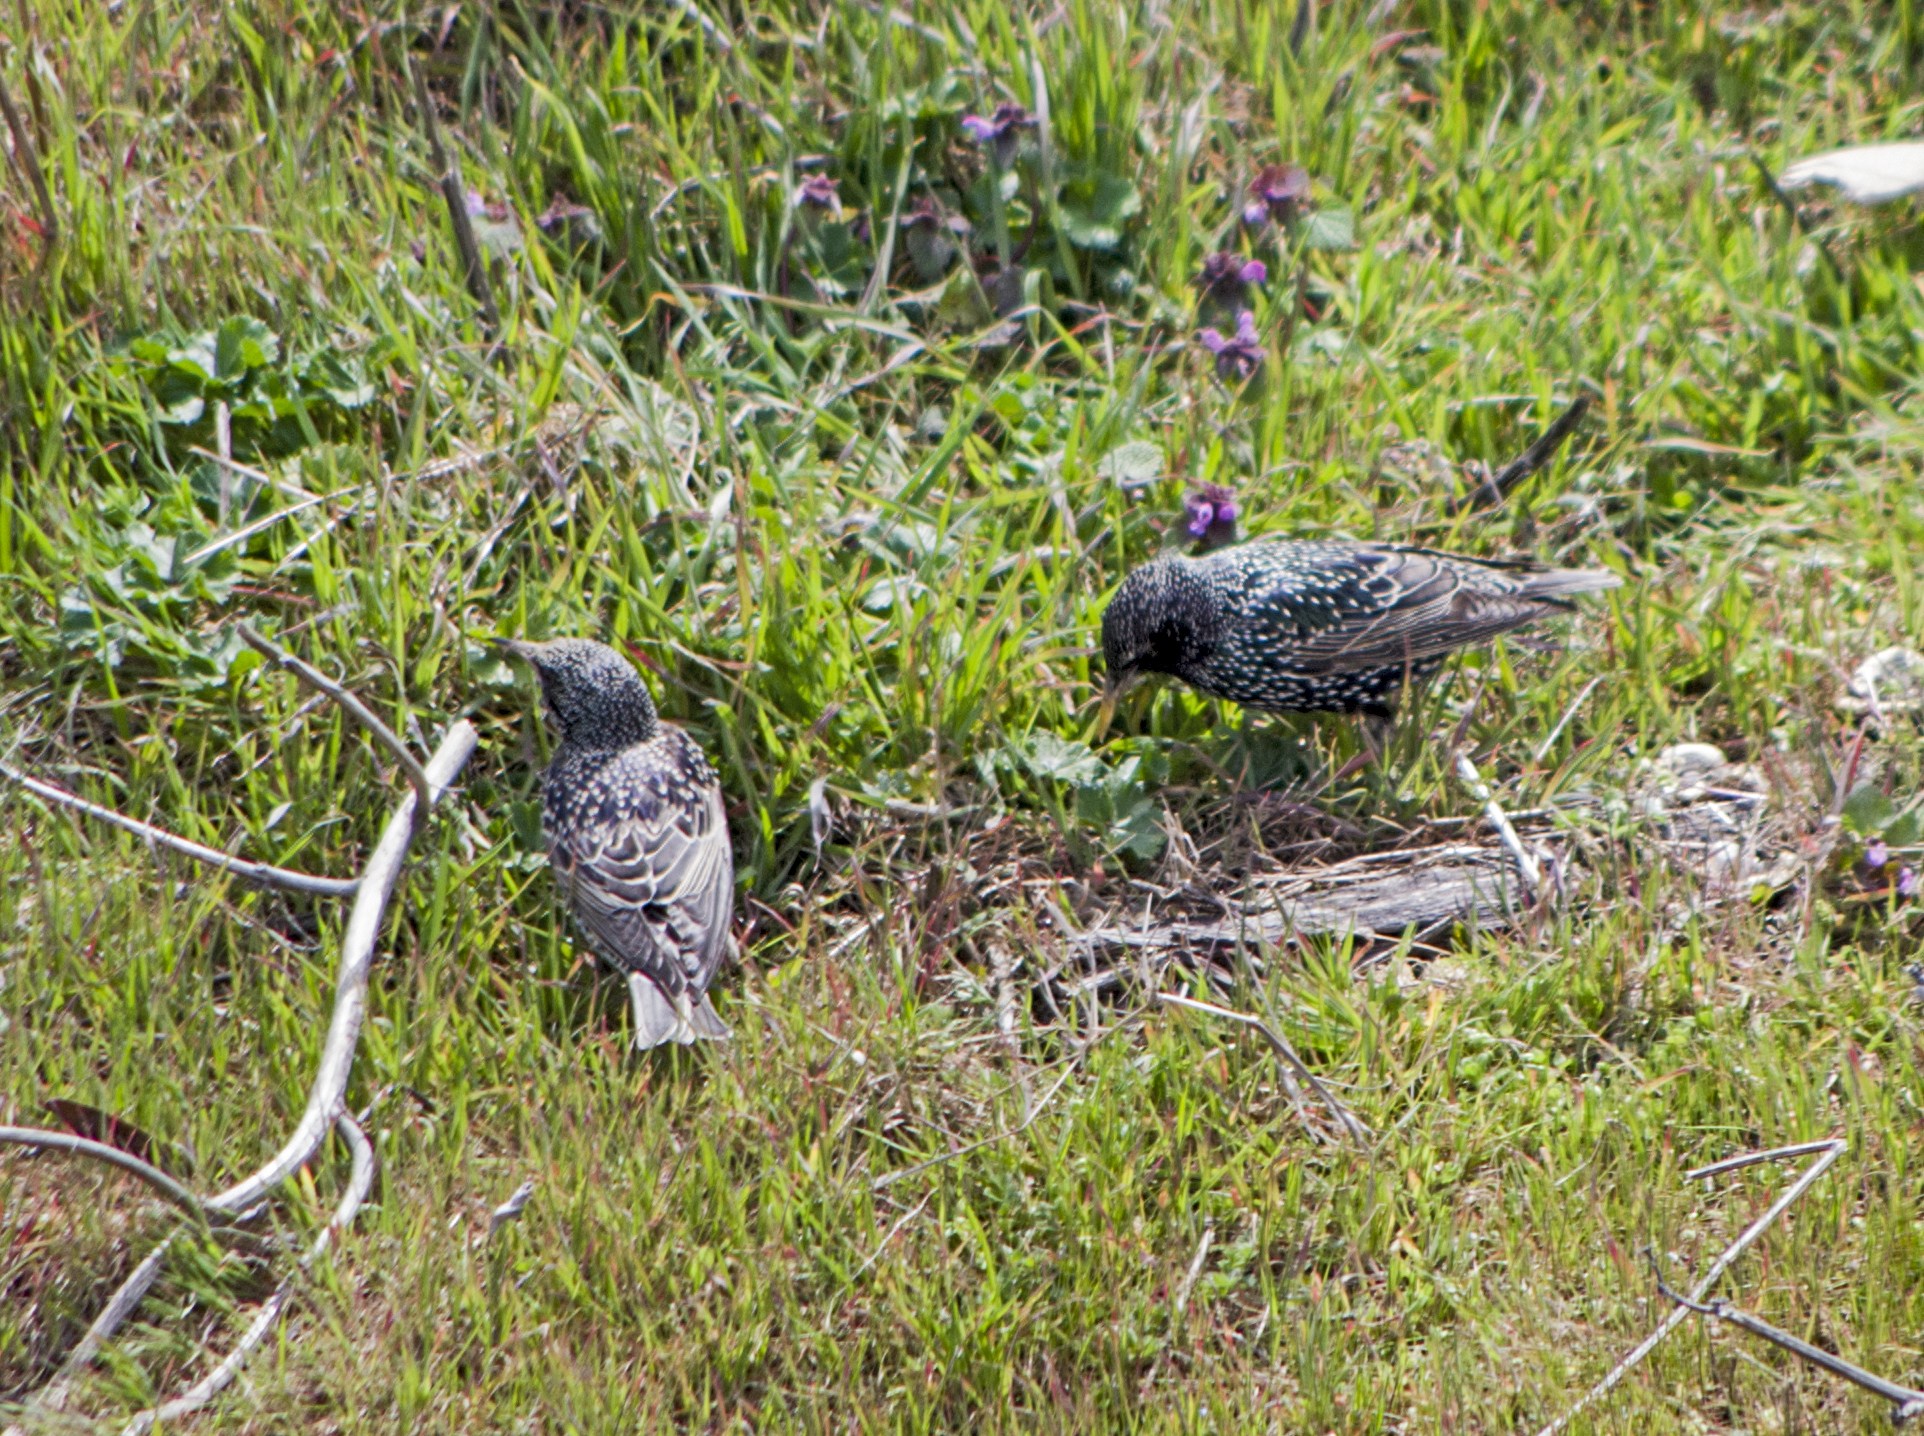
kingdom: Animalia
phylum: Chordata
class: Aves
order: Passeriformes
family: Sturnidae
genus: Sturnus
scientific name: Sturnus vulgaris
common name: Common starling
